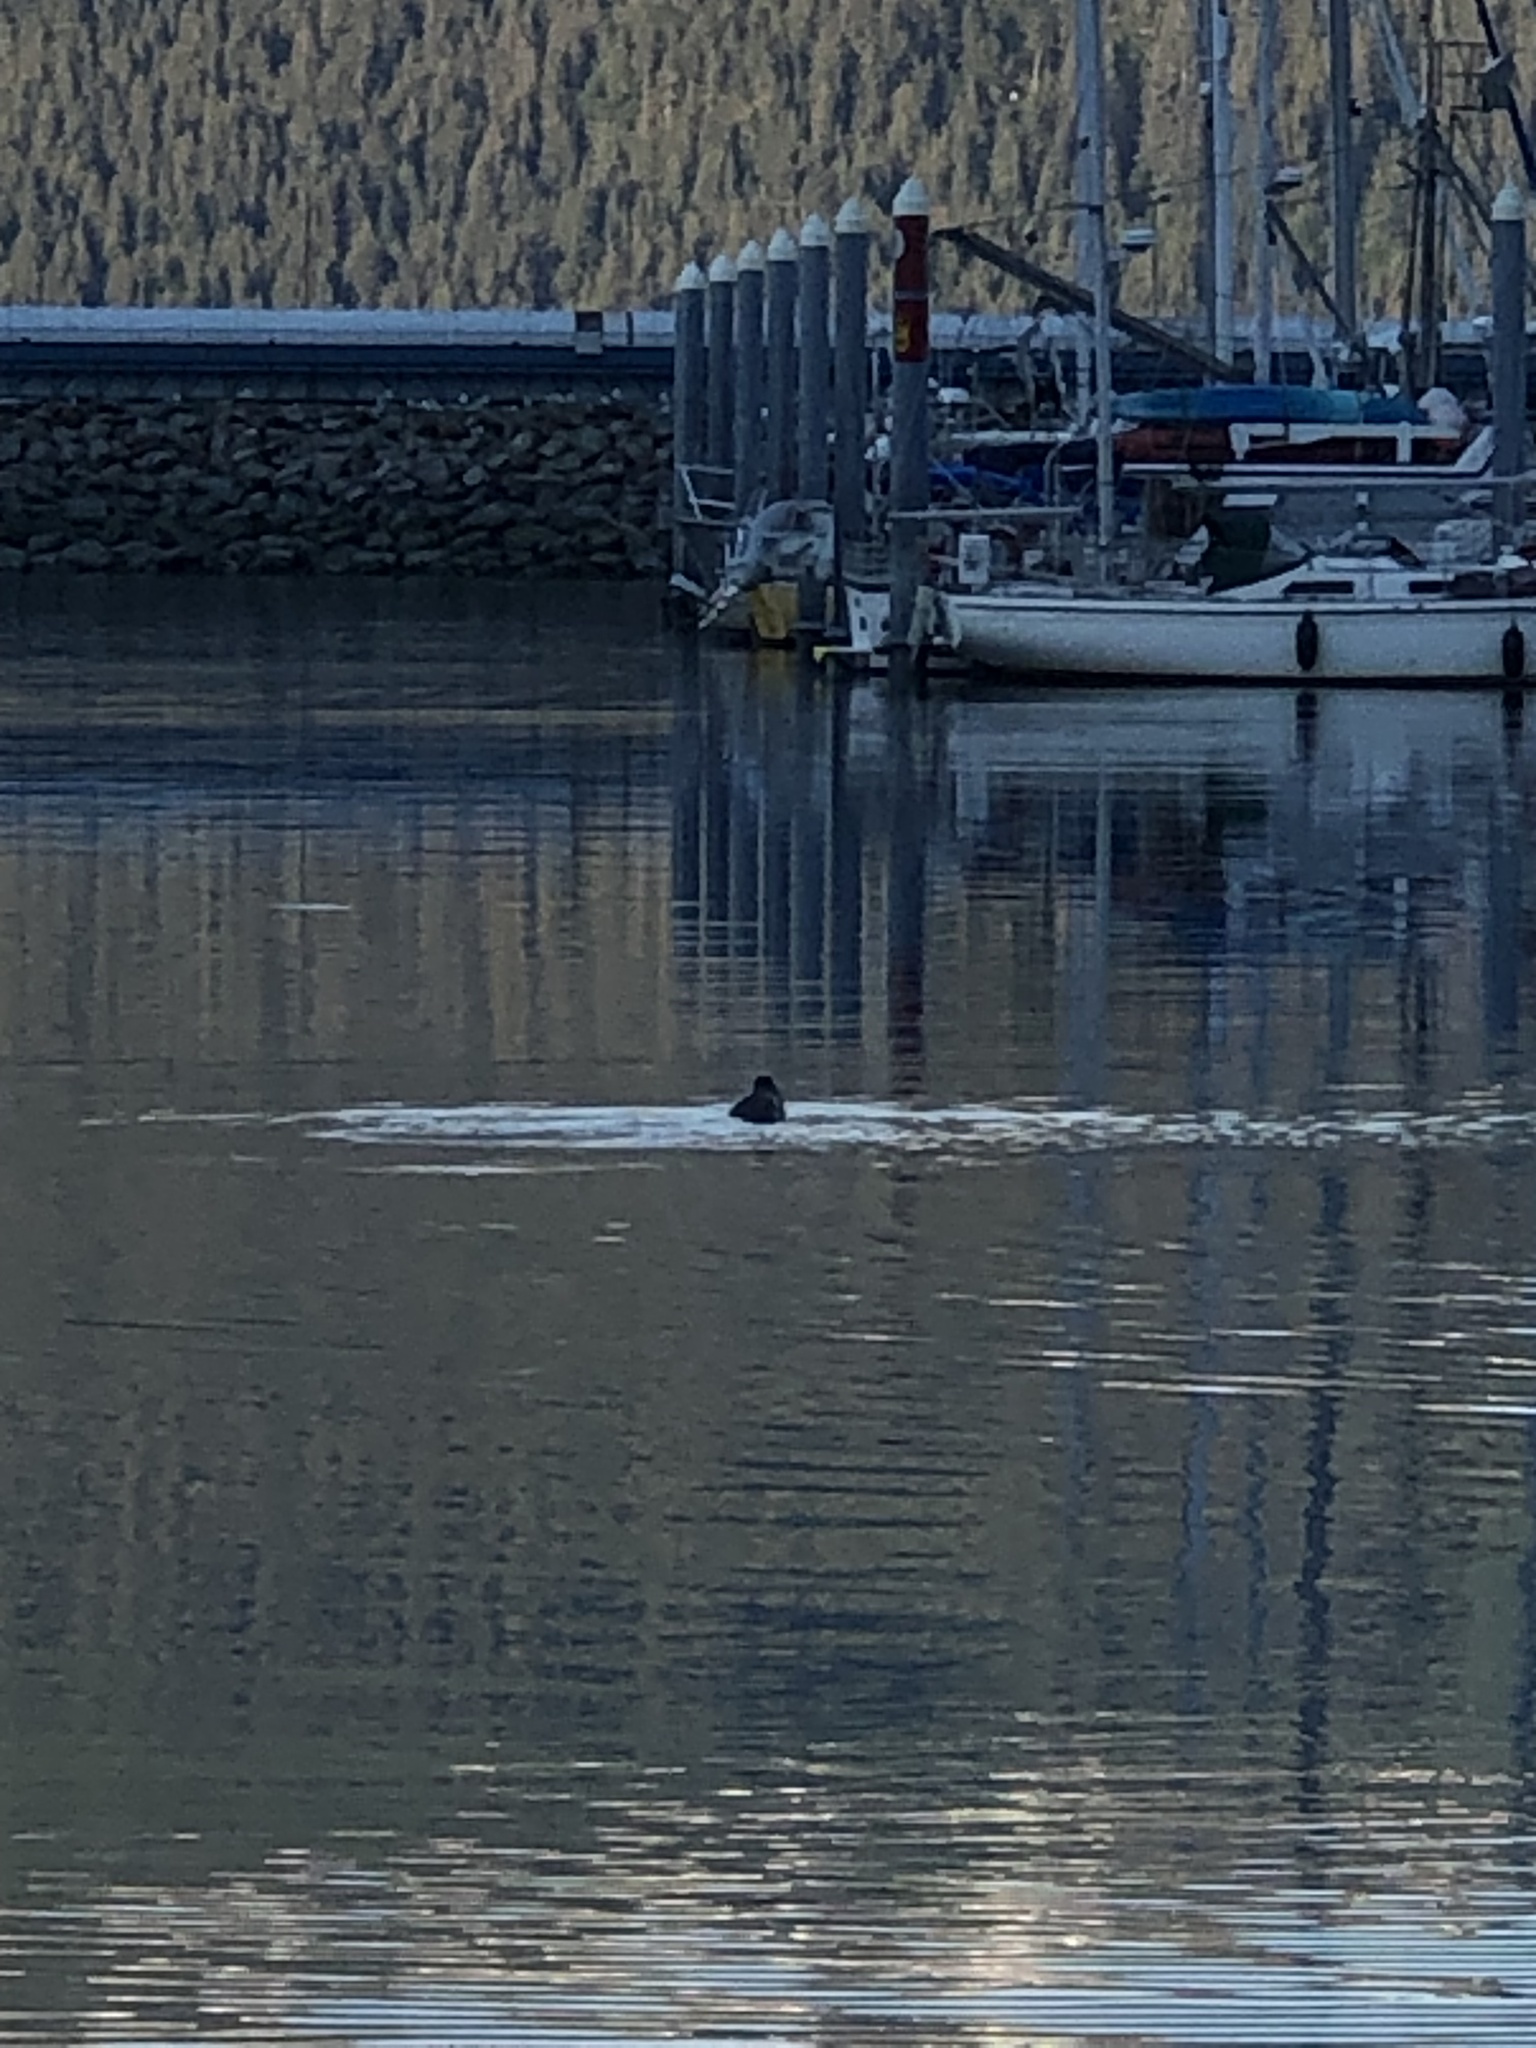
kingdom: Animalia
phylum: Chordata
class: Mammalia
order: Carnivora
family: Otariidae
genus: Eumetopias
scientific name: Eumetopias jubatus
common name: Steller sea lion
